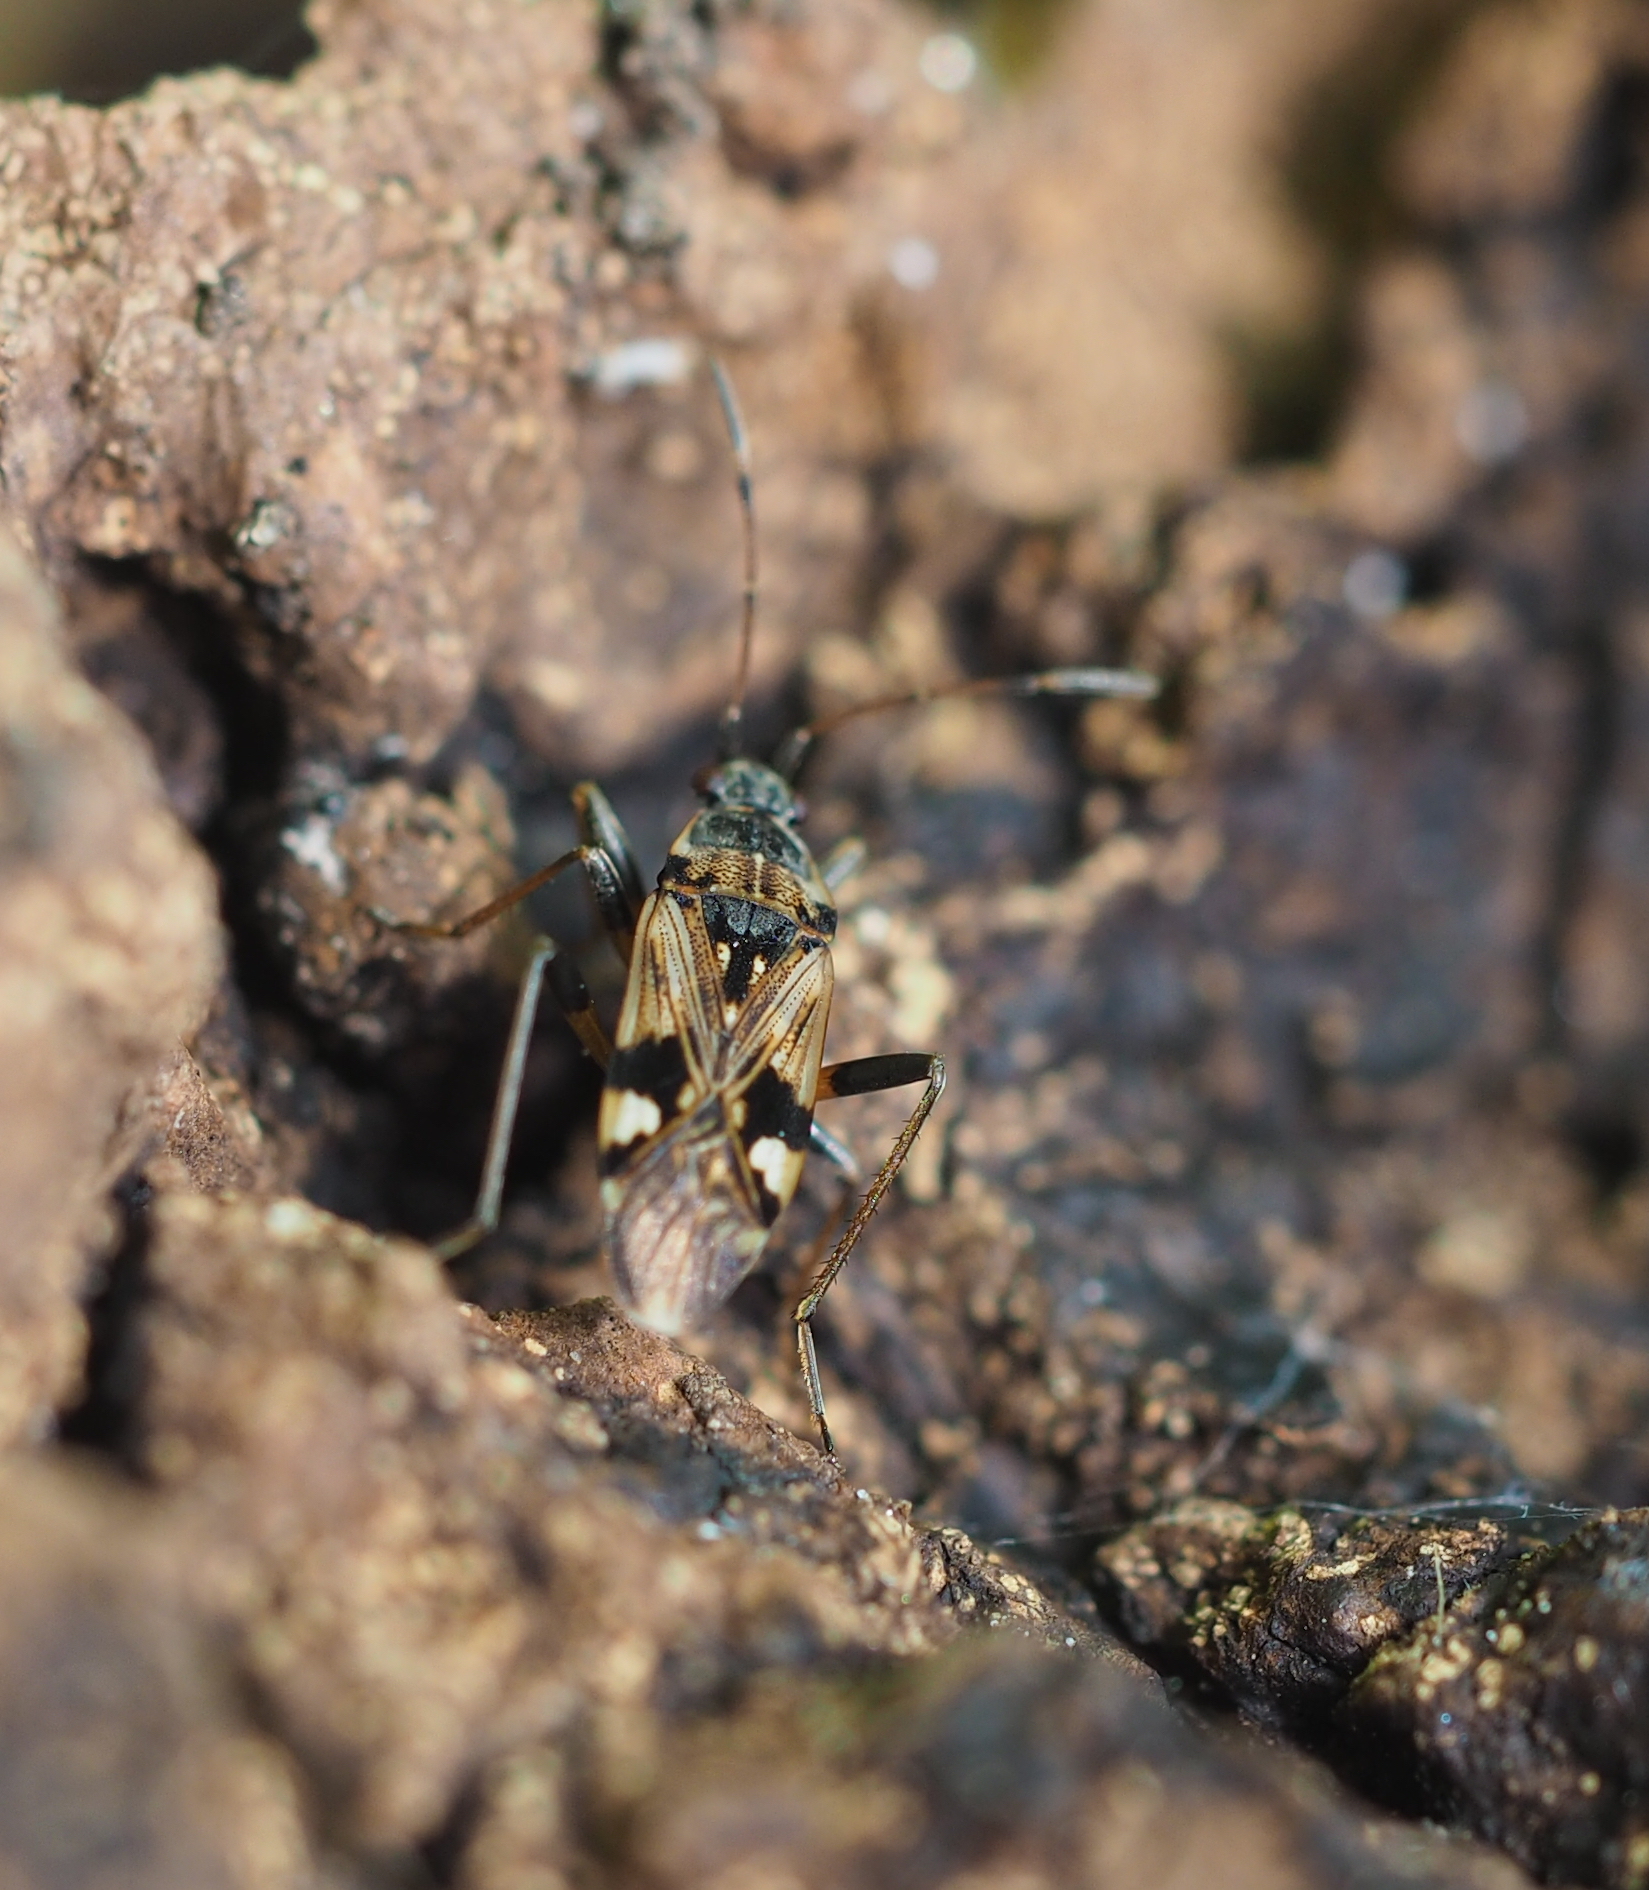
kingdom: Animalia
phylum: Arthropoda
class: Insecta
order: Hemiptera
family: Rhyparochromidae
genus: Beosus
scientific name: Beosus maritimus
